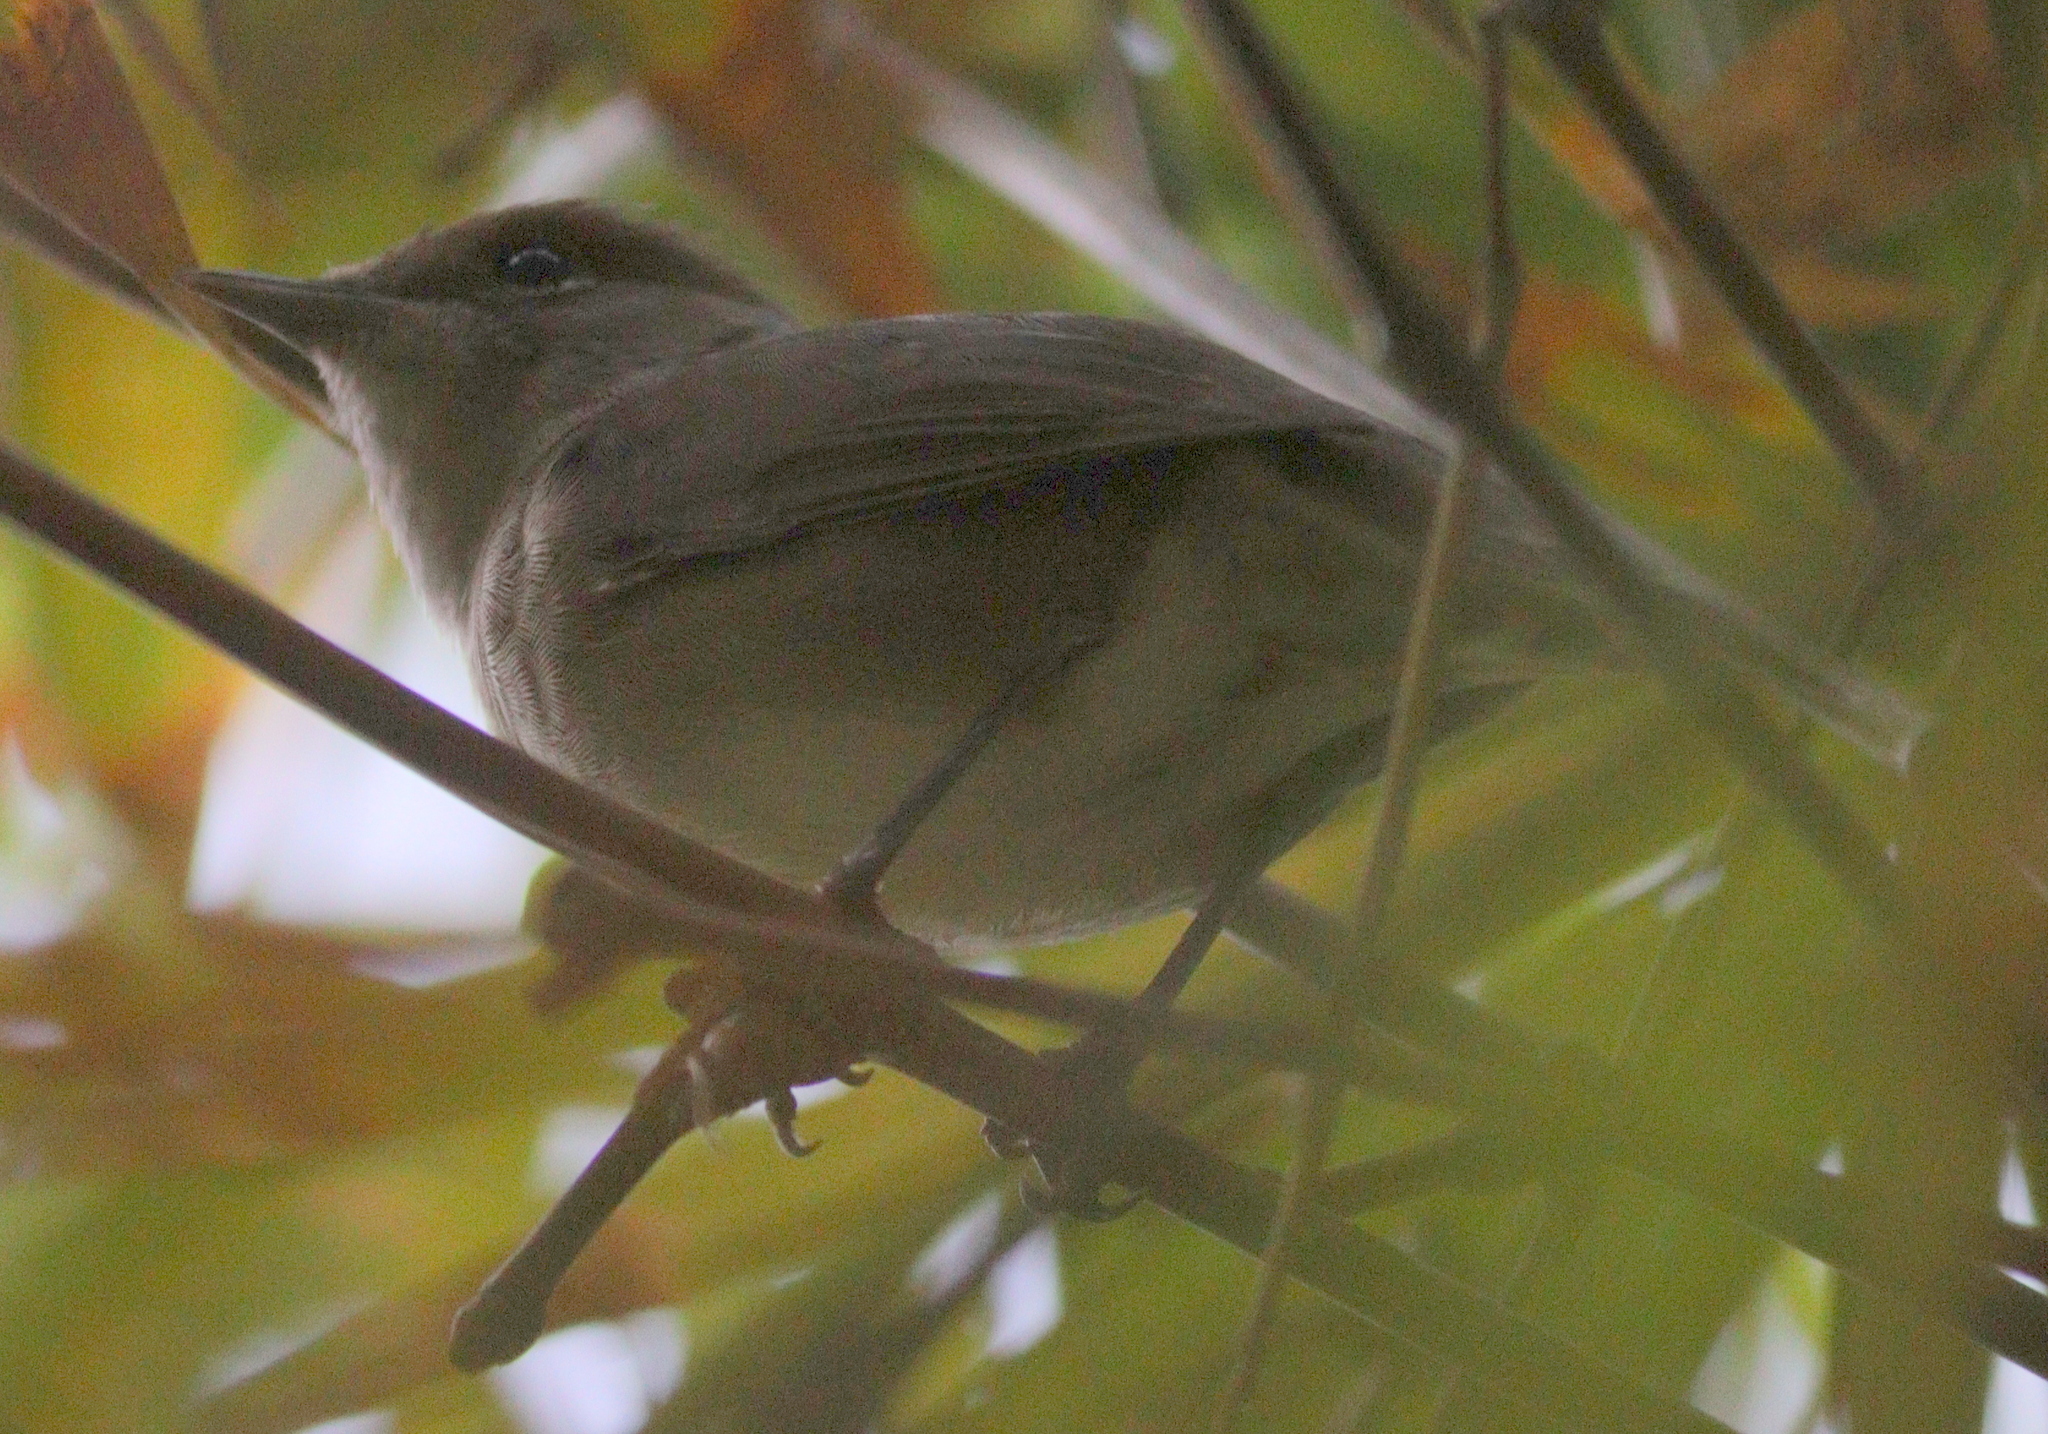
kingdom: Animalia
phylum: Chordata
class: Aves
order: Passeriformes
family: Sylviidae
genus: Sylvia
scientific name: Sylvia atricapilla
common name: Eurasian blackcap
